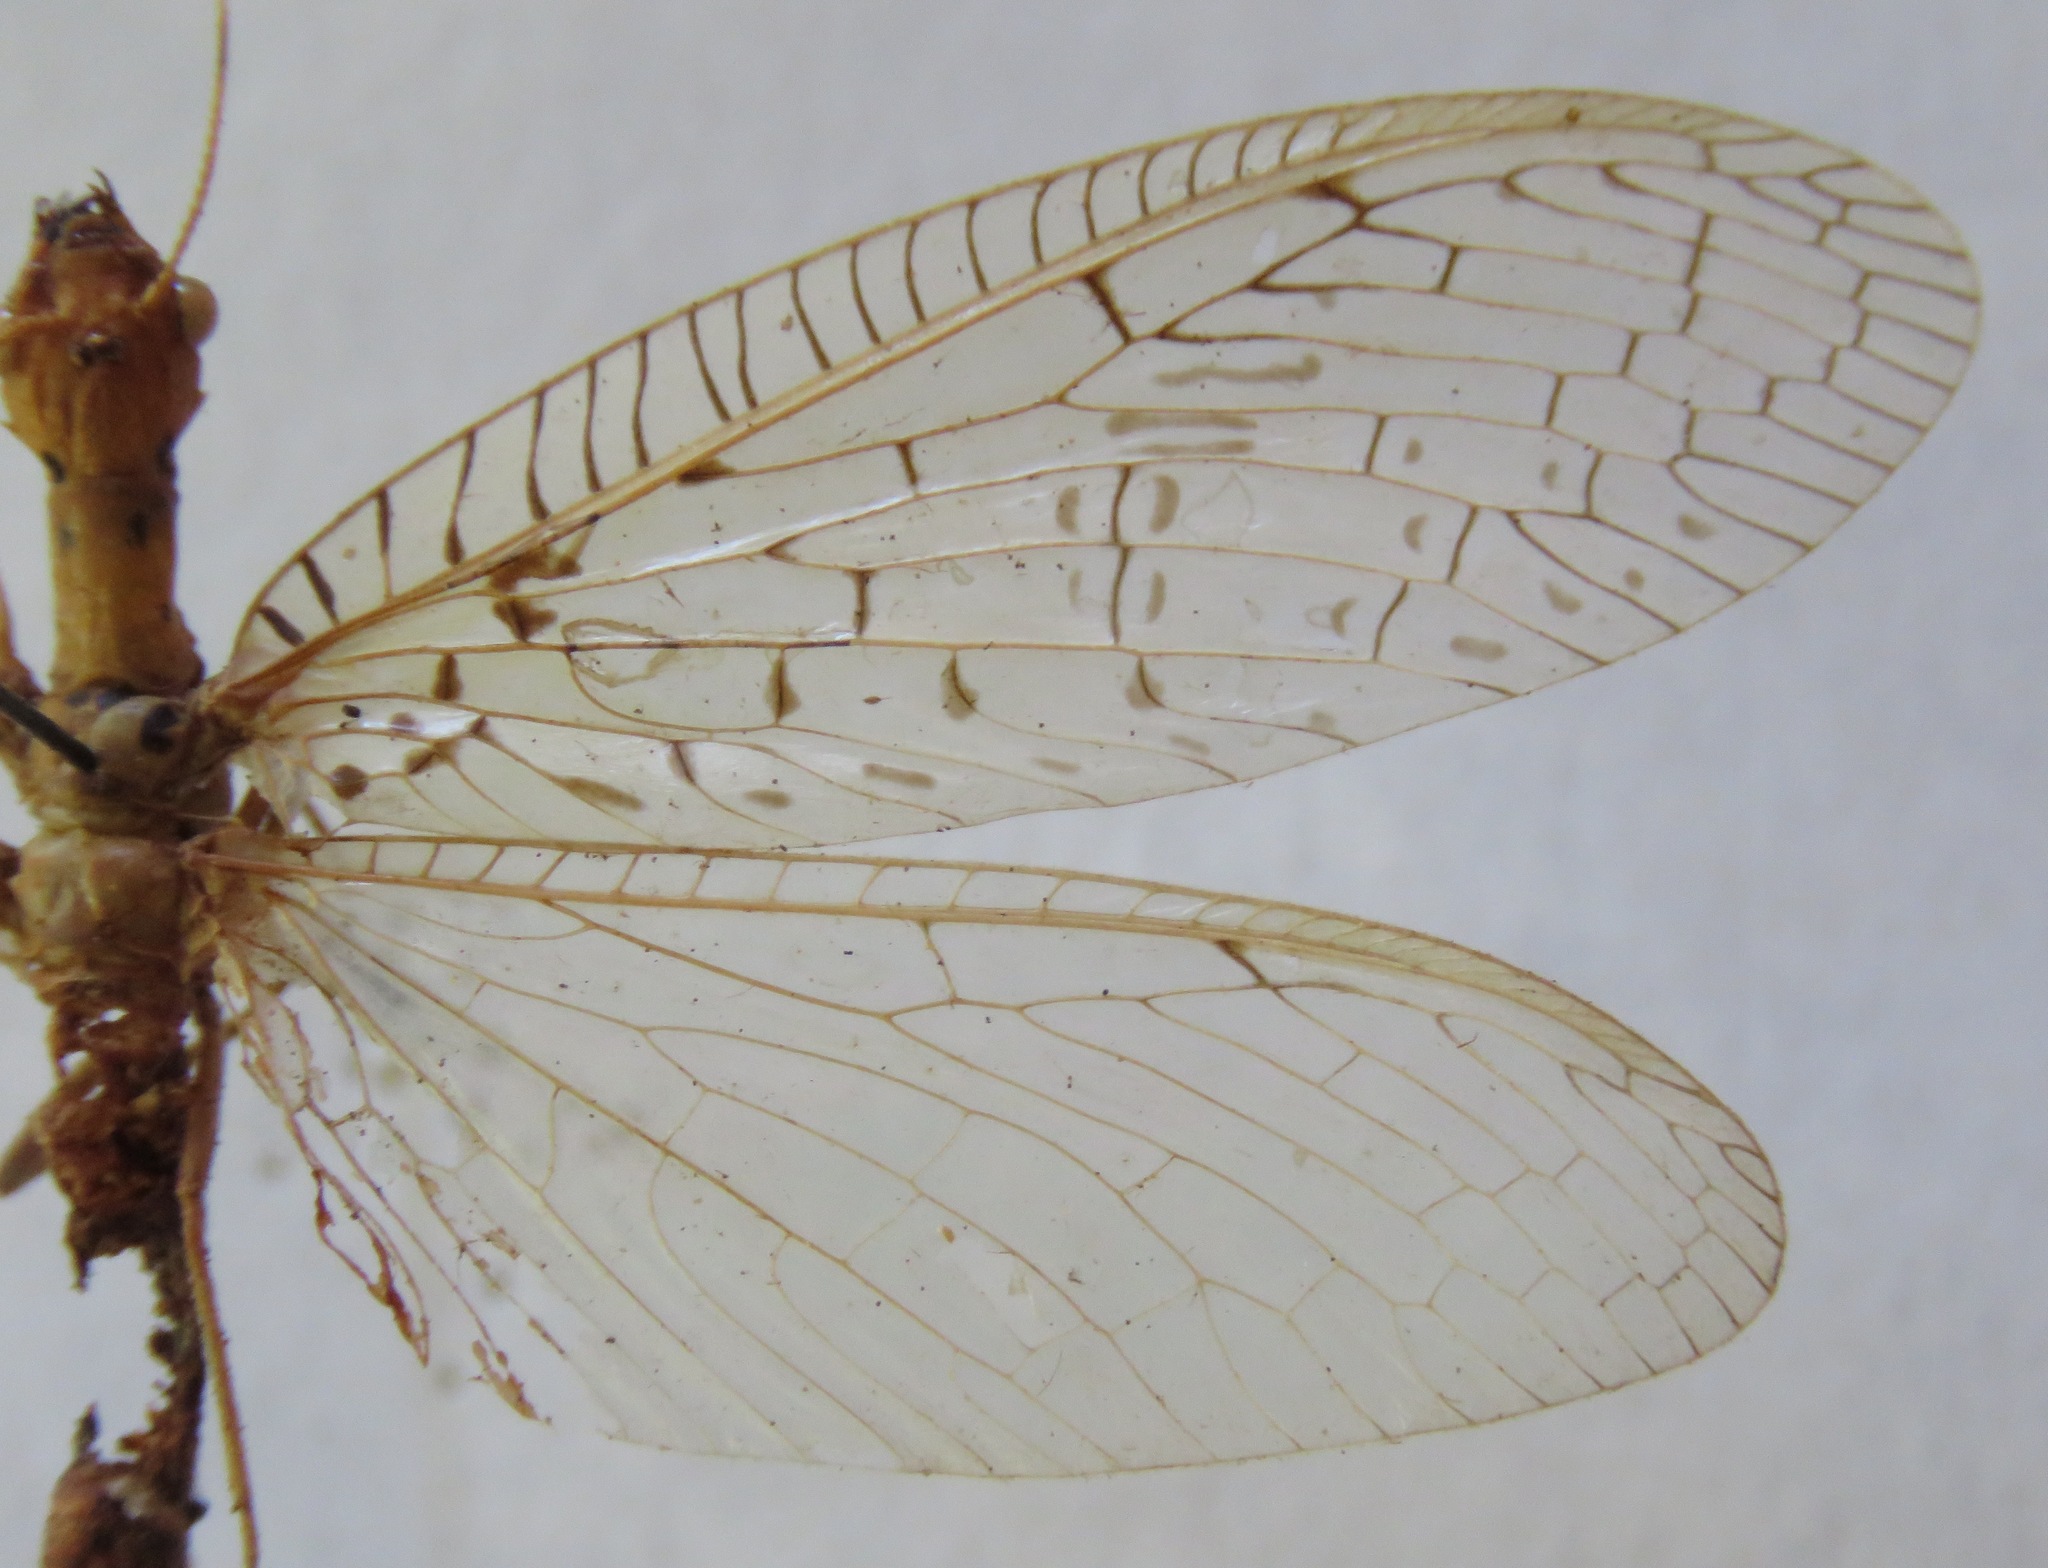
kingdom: Animalia
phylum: Arthropoda
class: Insecta
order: Megaloptera
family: Corydalidae
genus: Chloronia
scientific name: Chloronia mirifica
